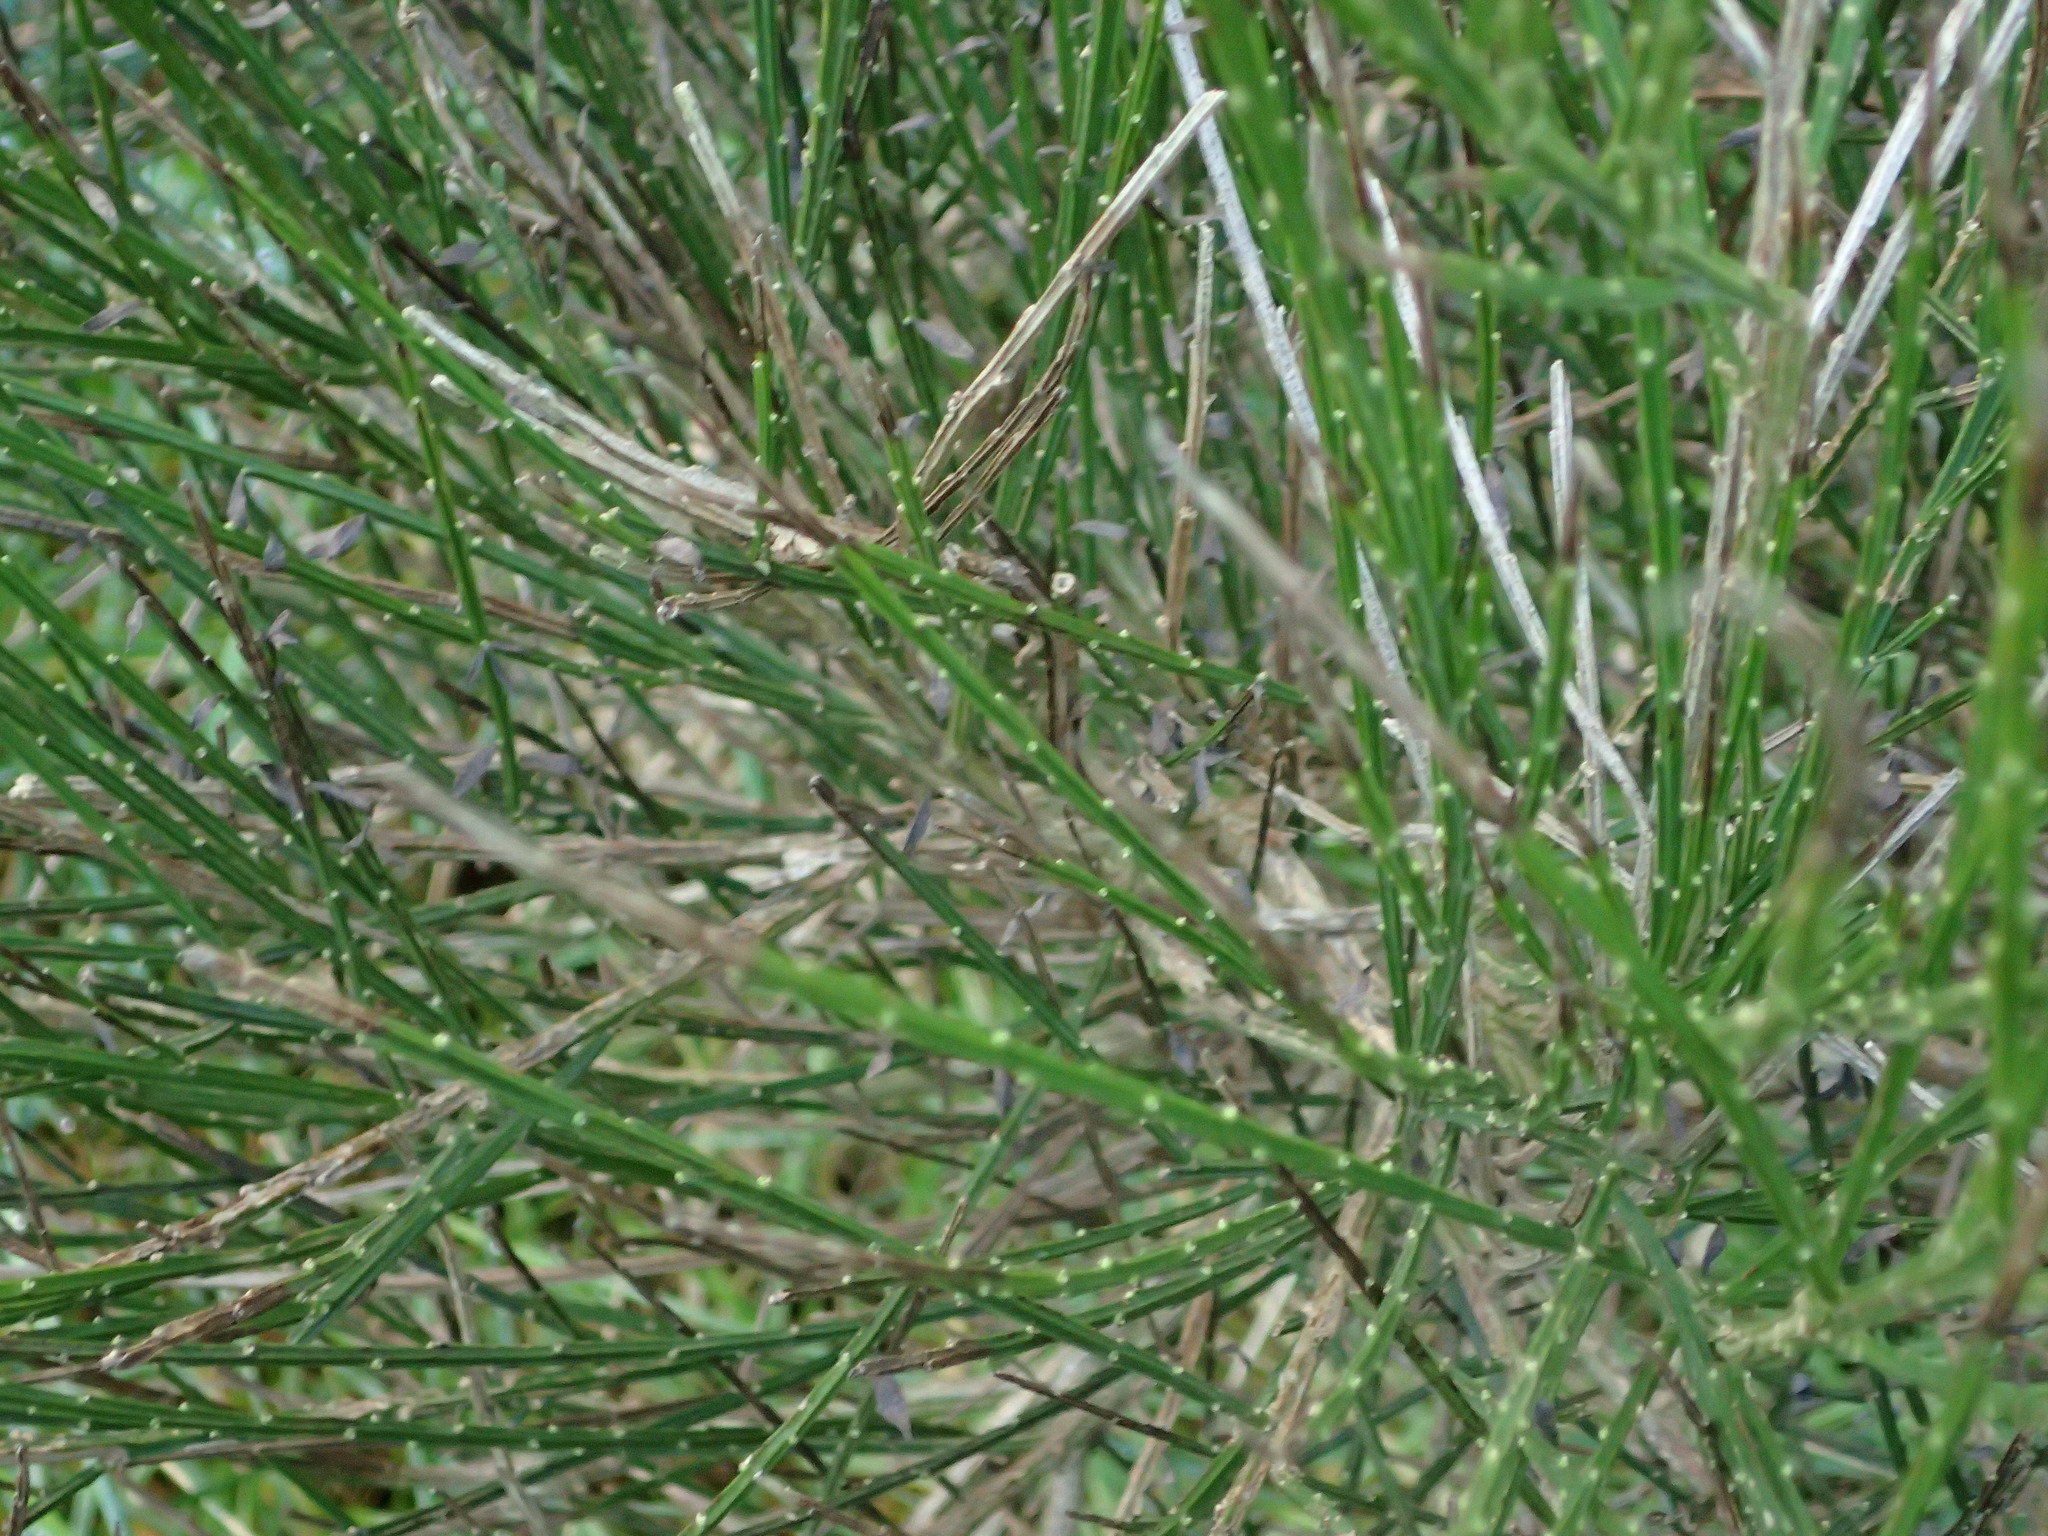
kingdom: Plantae
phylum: Tracheophyta
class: Magnoliopsida
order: Fabales
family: Fabaceae
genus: Cytisus
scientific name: Cytisus scoparius
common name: Scotch broom
